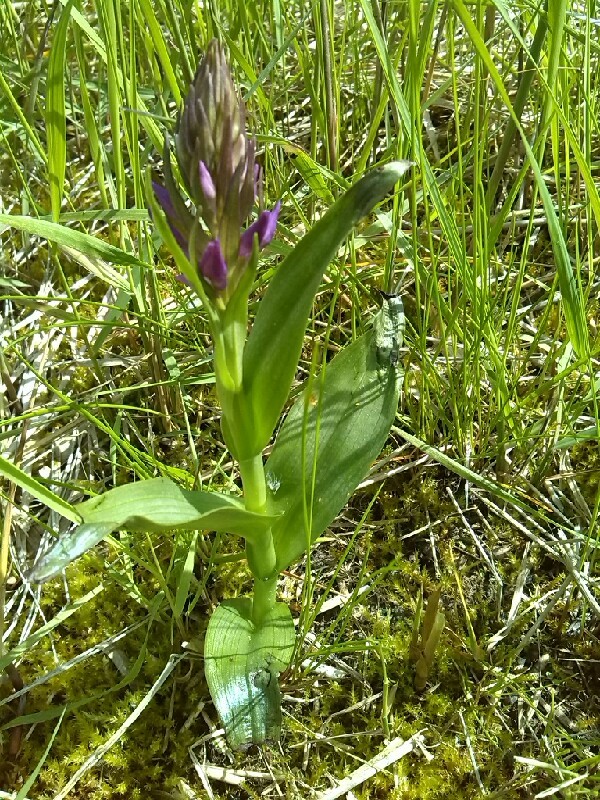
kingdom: Plantae
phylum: Tracheophyta
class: Liliopsida
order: Asparagales
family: Orchidaceae
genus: Dactylorhiza
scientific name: Dactylorhiza majalis
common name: Marsh orchid
